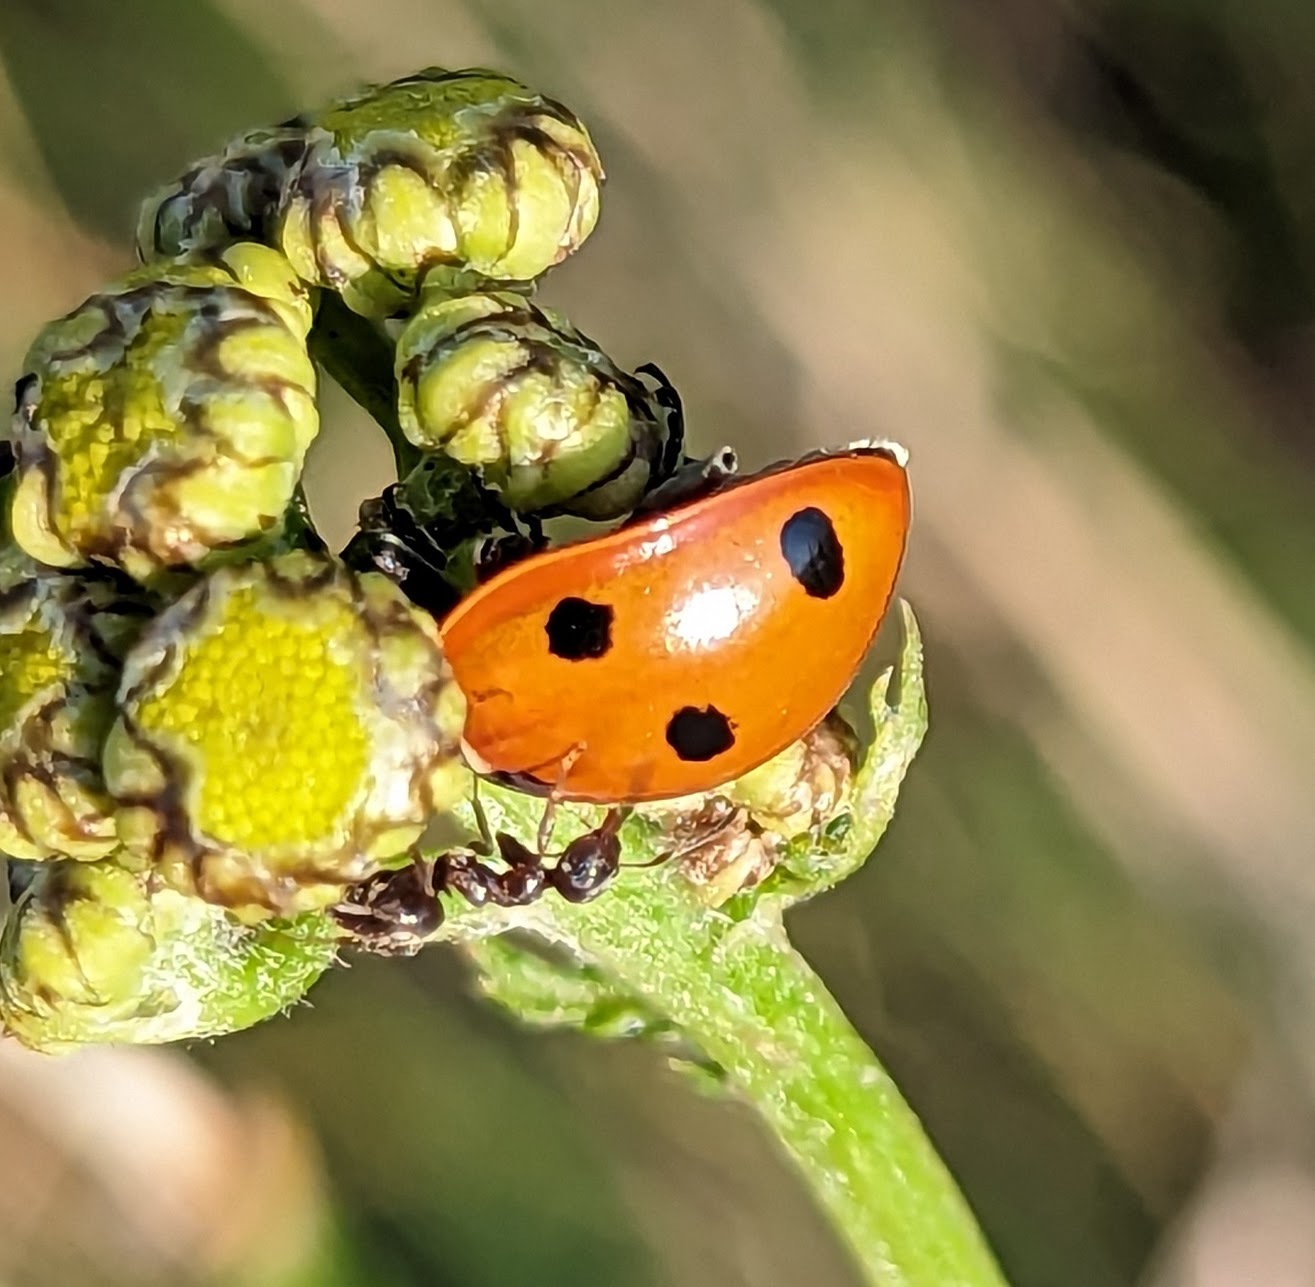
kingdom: Animalia
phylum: Arthropoda
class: Insecta
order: Coleoptera
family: Coccinellidae
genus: Coccinella
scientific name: Coccinella septempunctata
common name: Sevenspotted lady beetle
